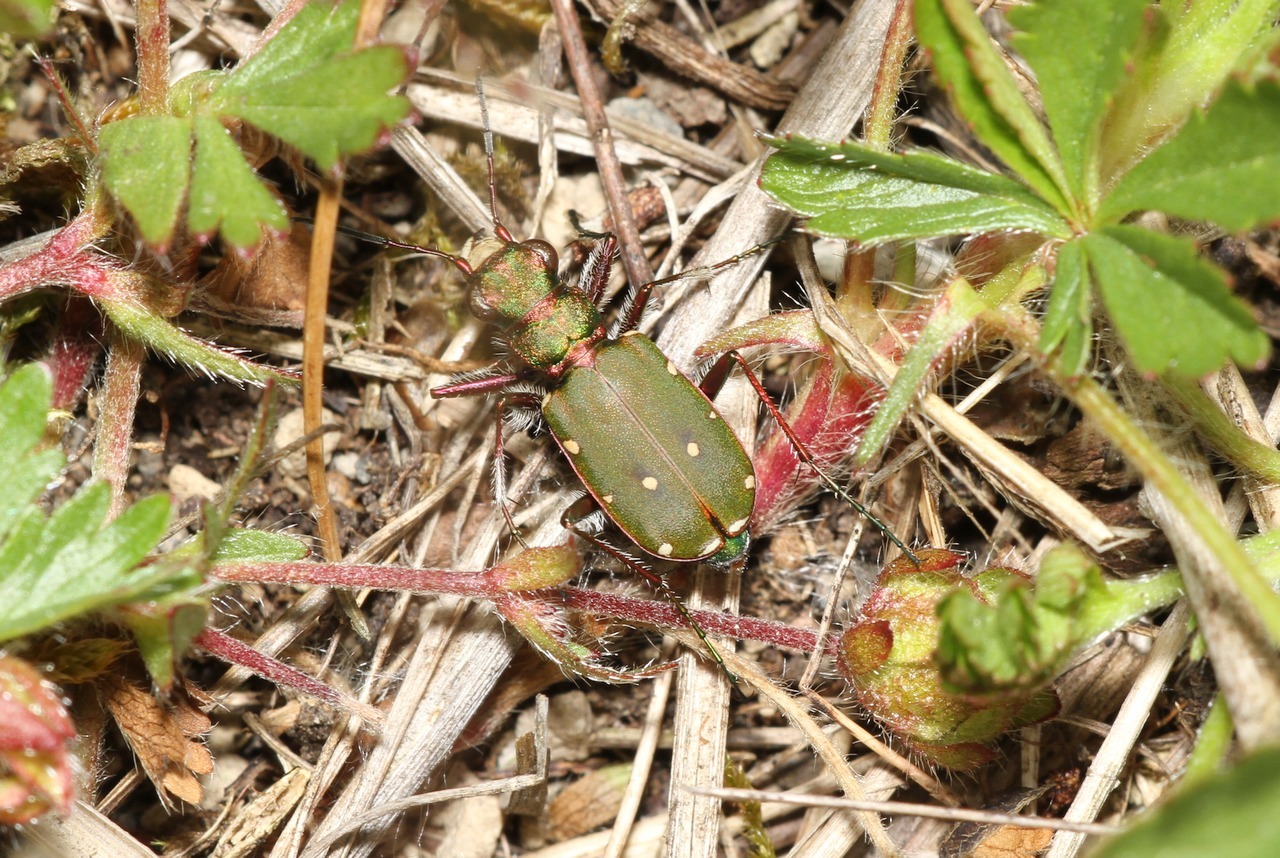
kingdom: Animalia
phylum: Arthropoda
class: Insecta
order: Coleoptera
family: Carabidae
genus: Cicindela
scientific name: Cicindela campestris
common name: Common tiger beetle
